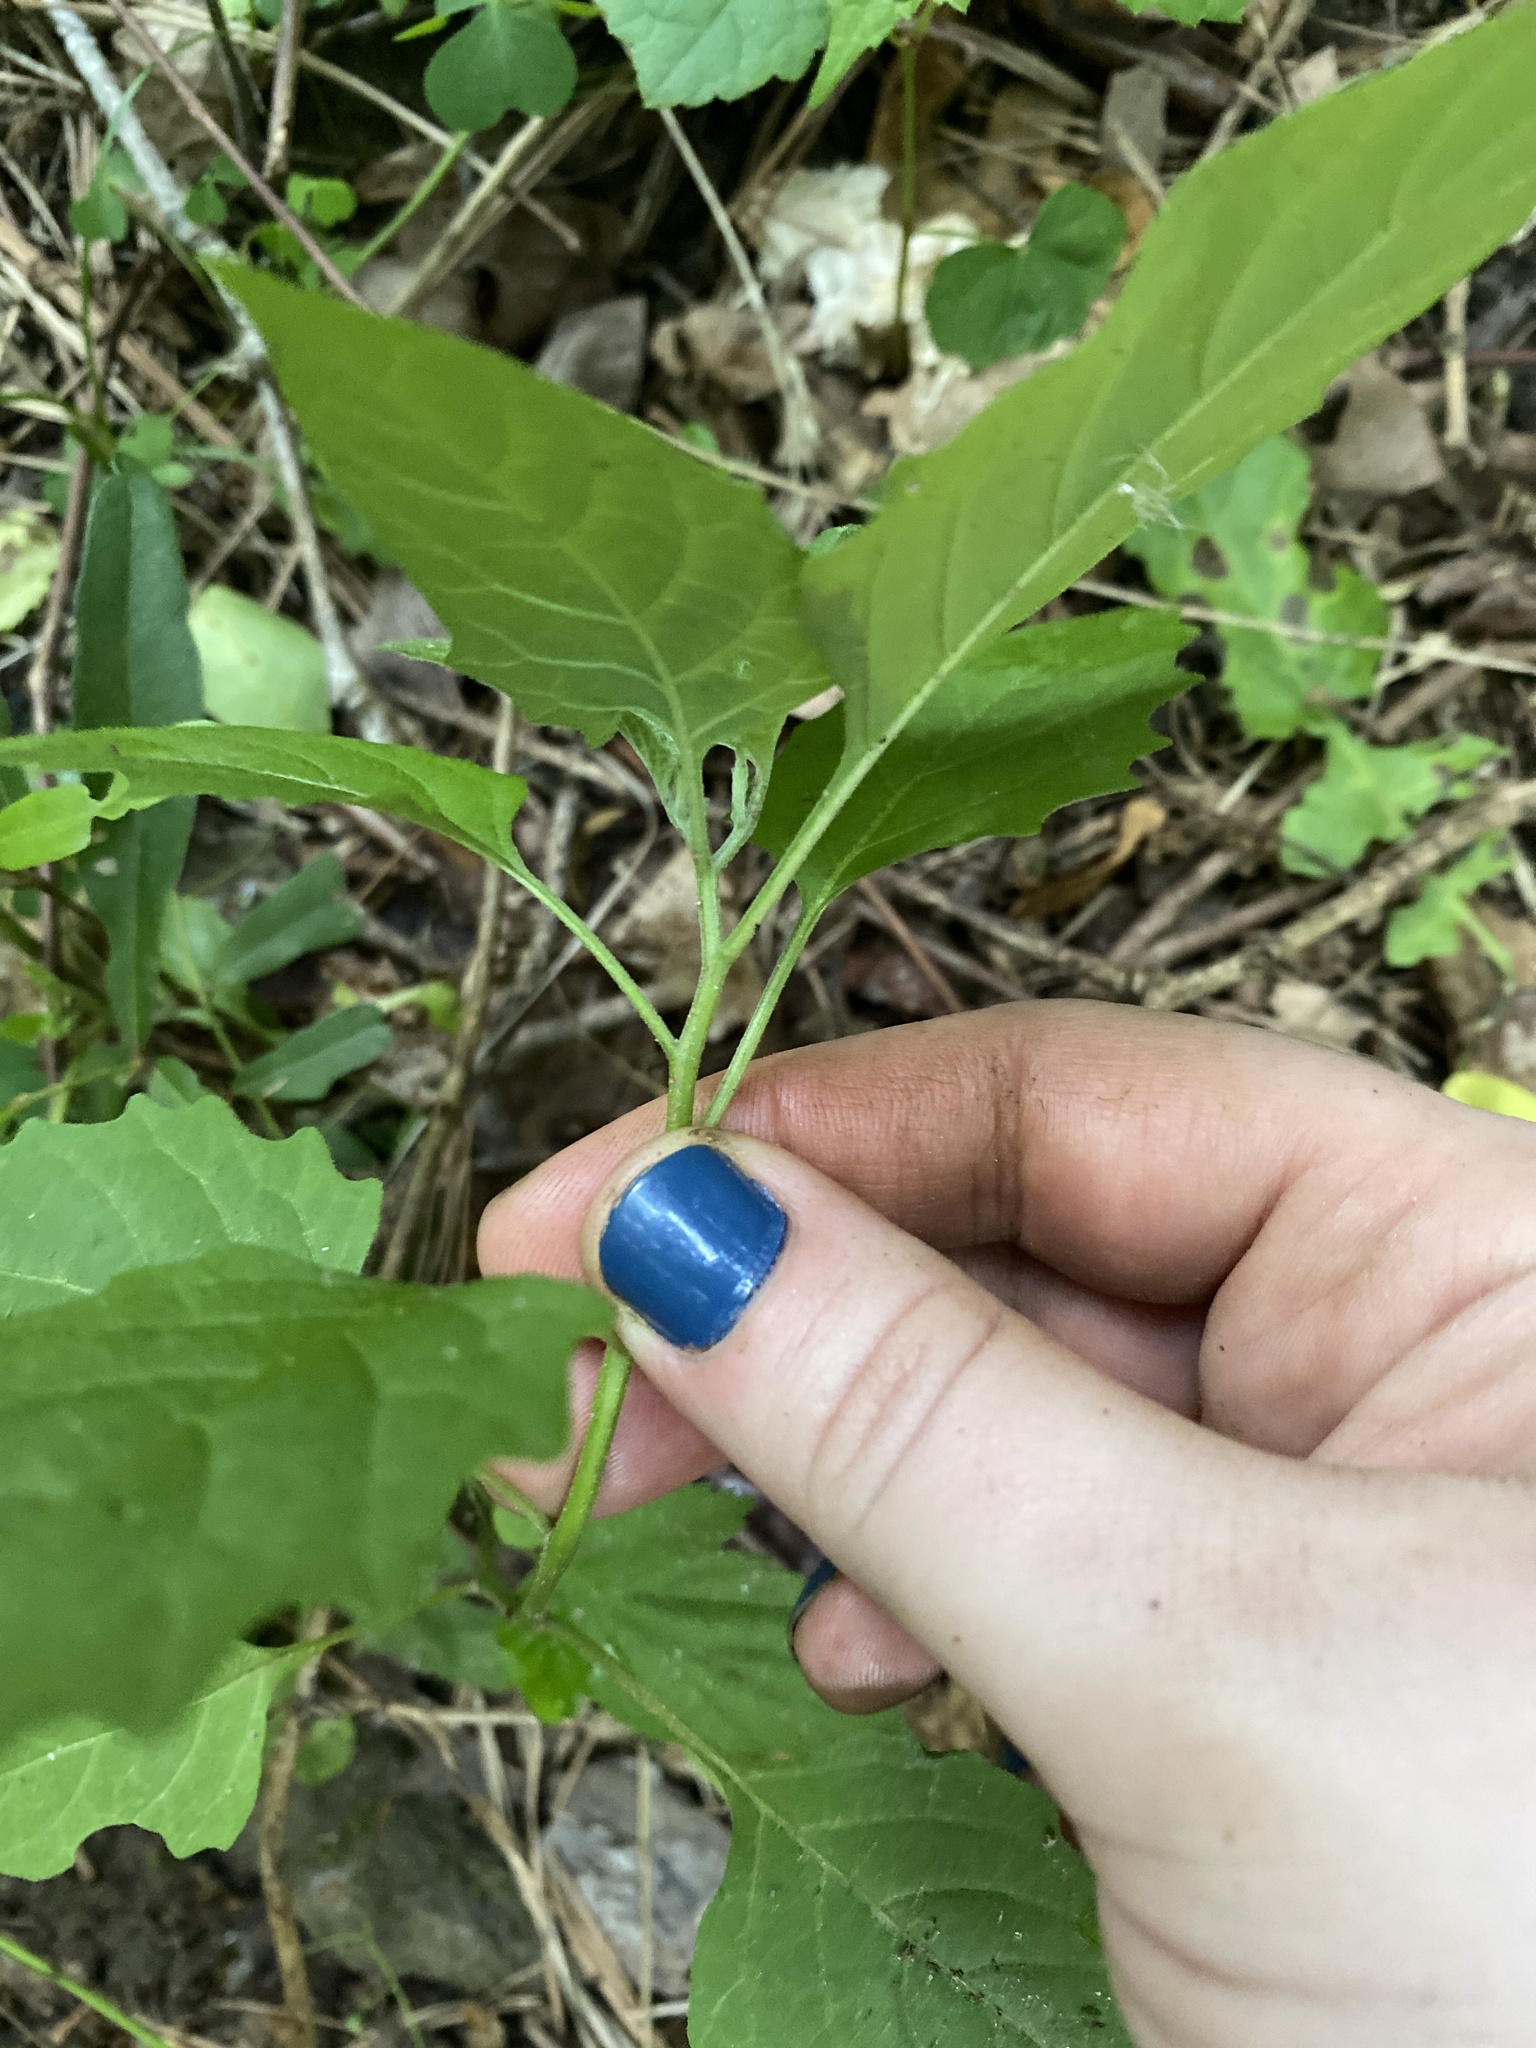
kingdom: Plantae
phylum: Tracheophyta
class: Magnoliopsida
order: Solanales
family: Solanaceae
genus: Solanum
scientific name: Solanum emulans
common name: Eastern black nightshade
